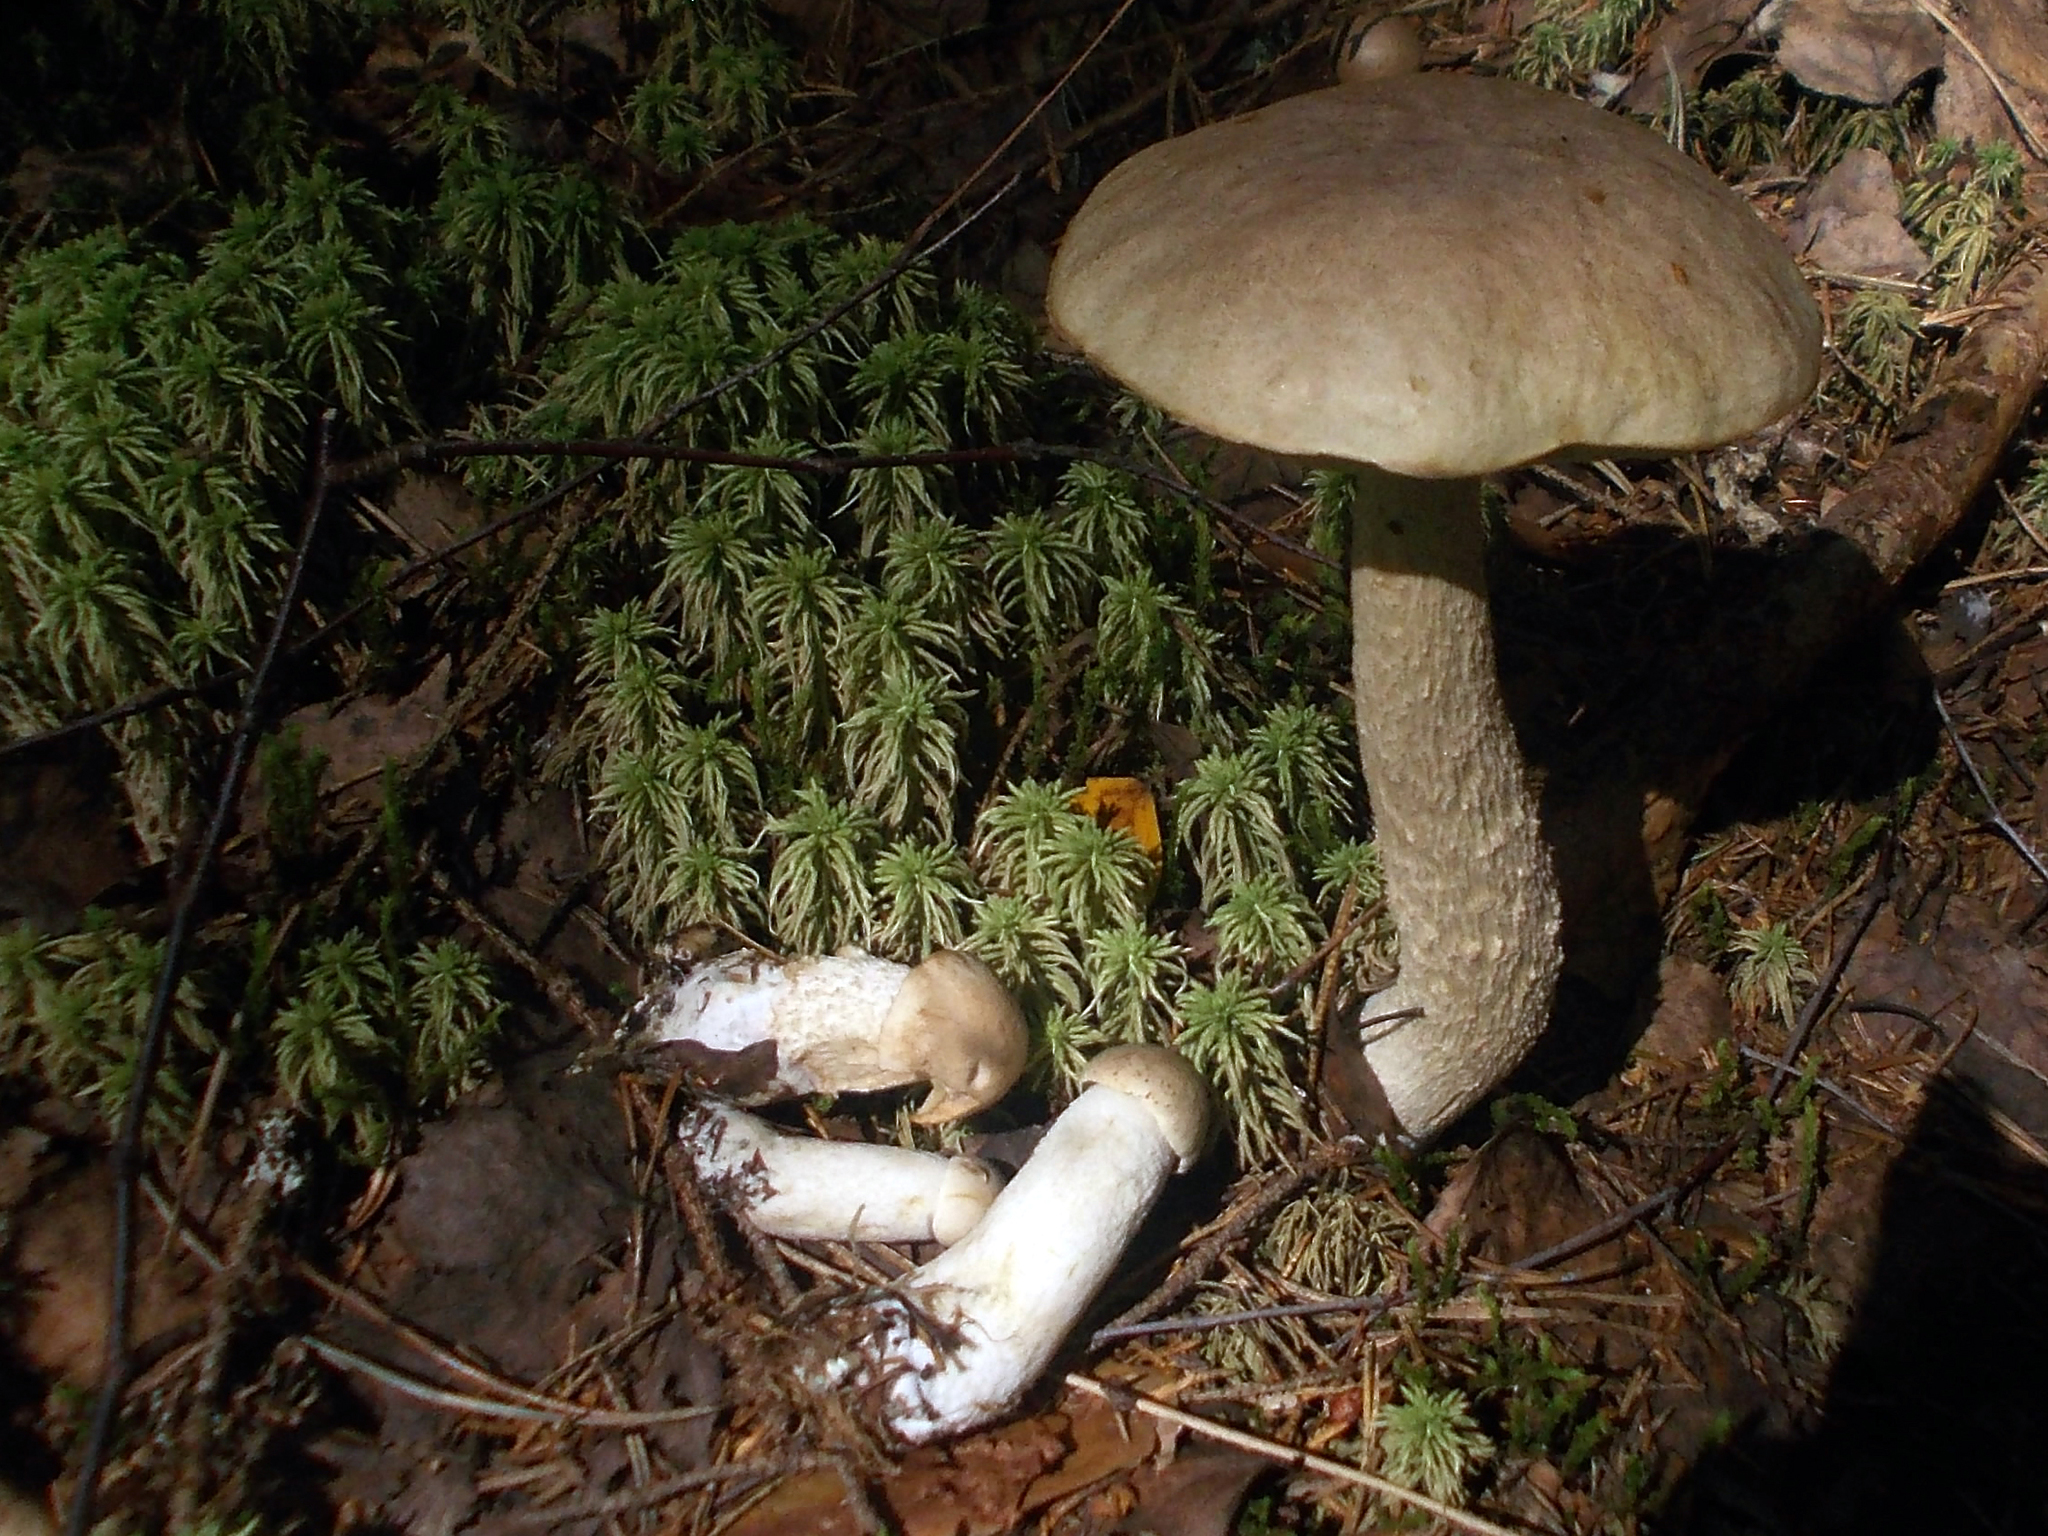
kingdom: Fungi
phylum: Basidiomycota
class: Agaricomycetes
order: Boletales
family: Boletaceae
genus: Leccinum
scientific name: Leccinum holopus
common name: Ghost bolete
